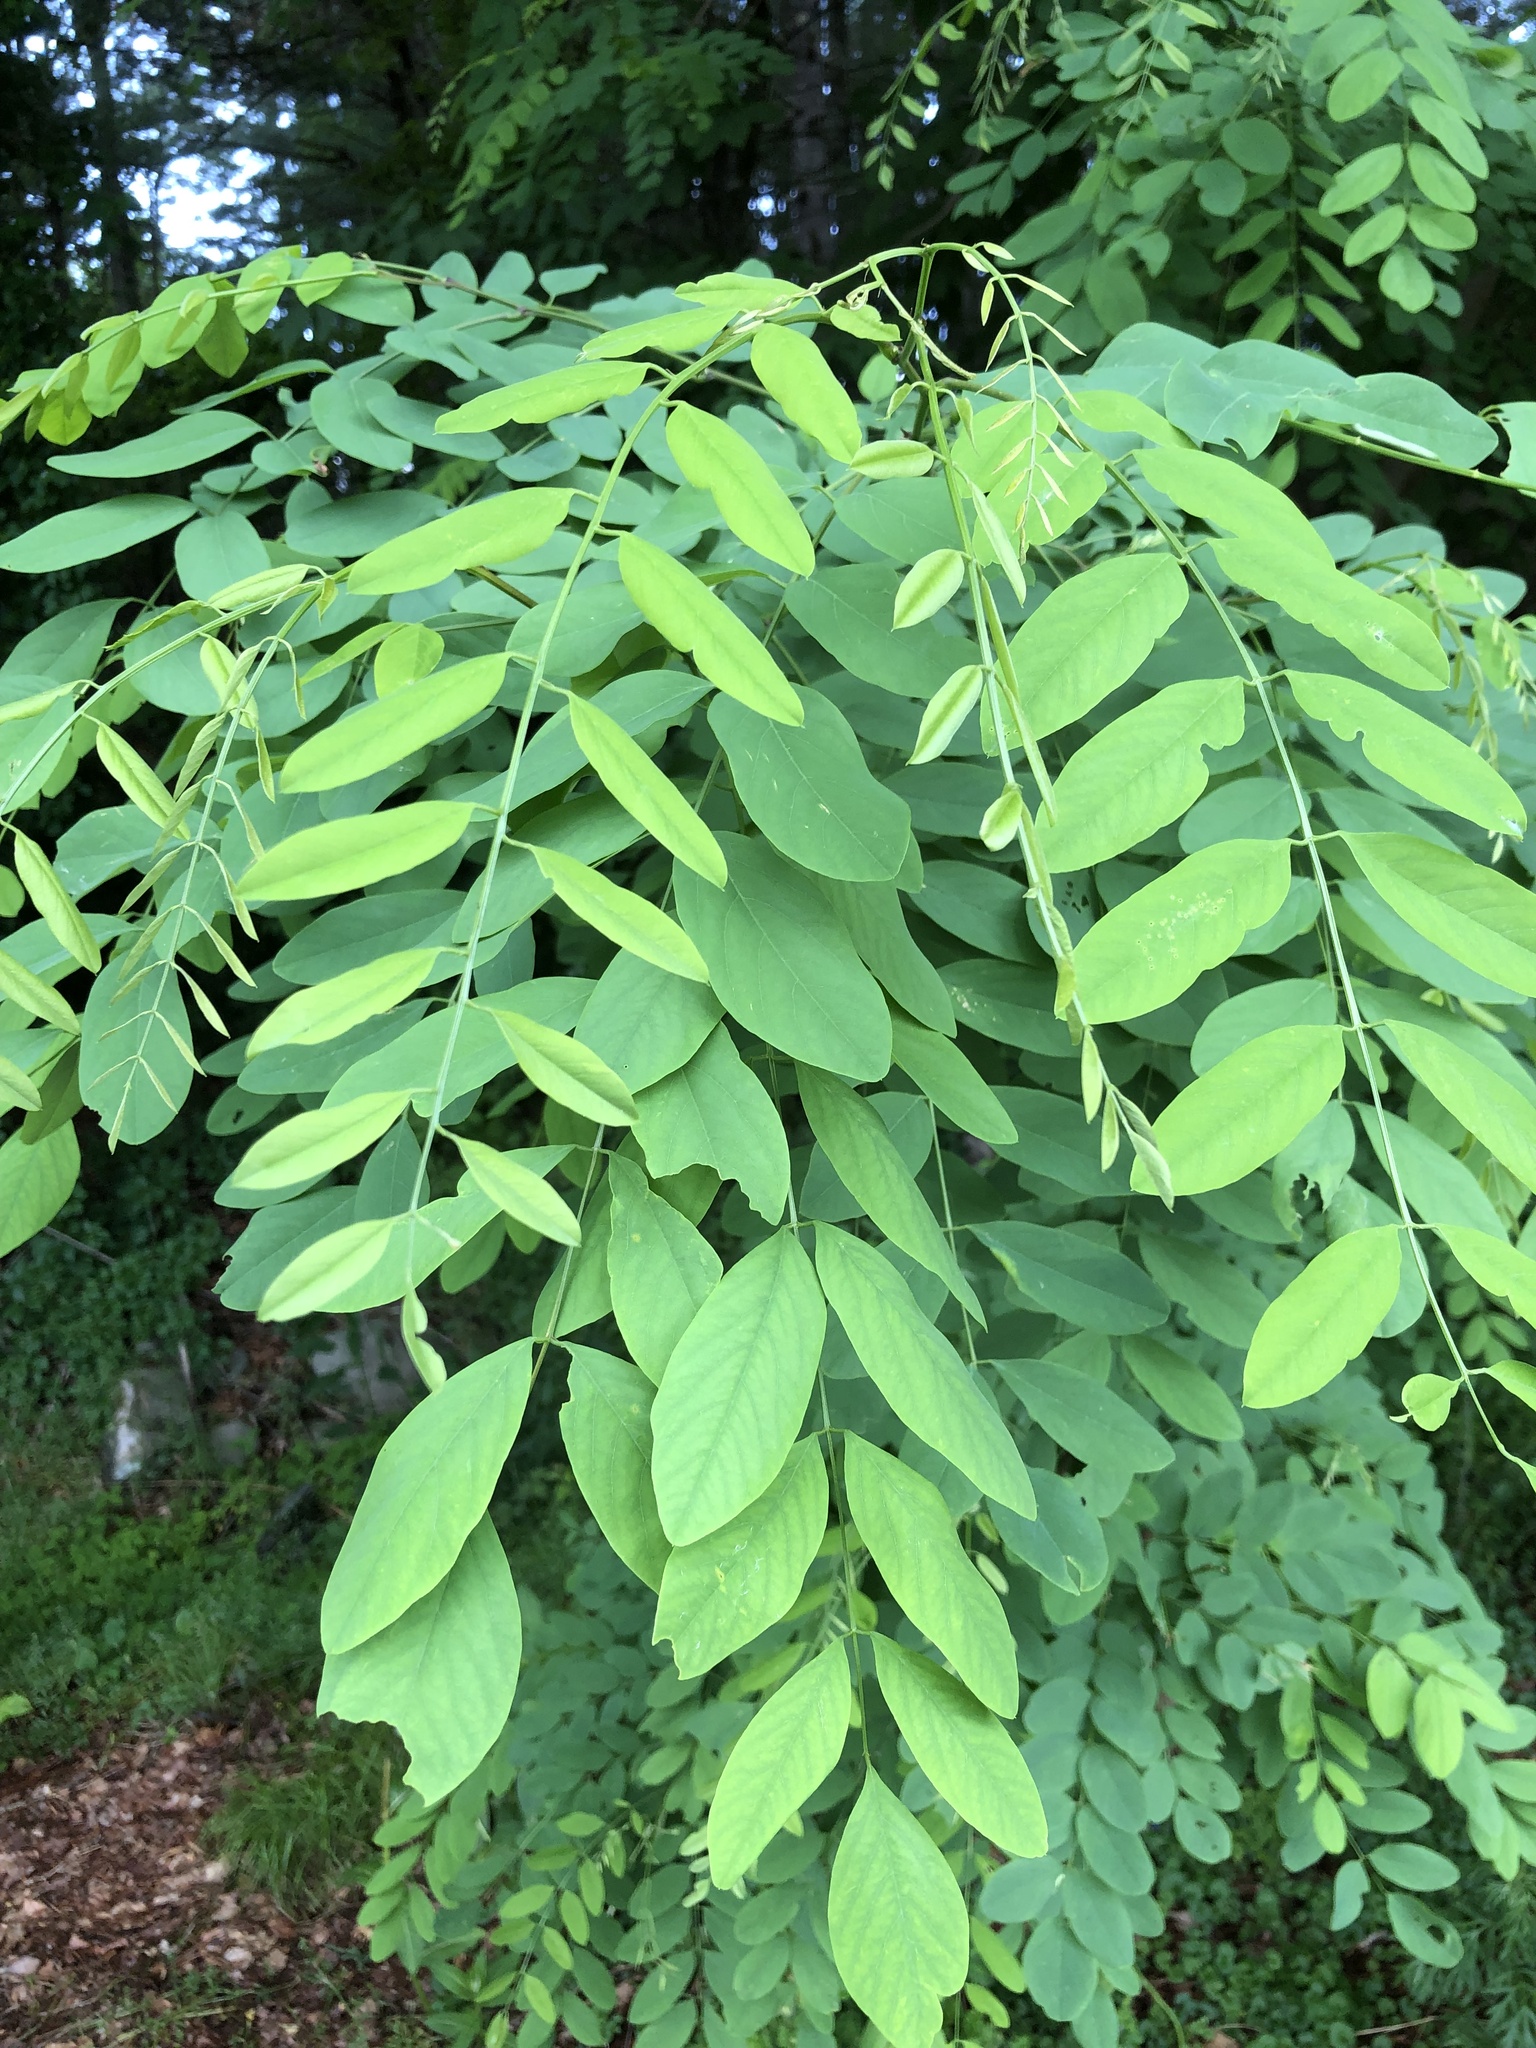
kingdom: Plantae
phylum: Tracheophyta
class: Magnoliopsida
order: Fabales
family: Fabaceae
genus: Robinia
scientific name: Robinia pseudoacacia
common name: Black locust
